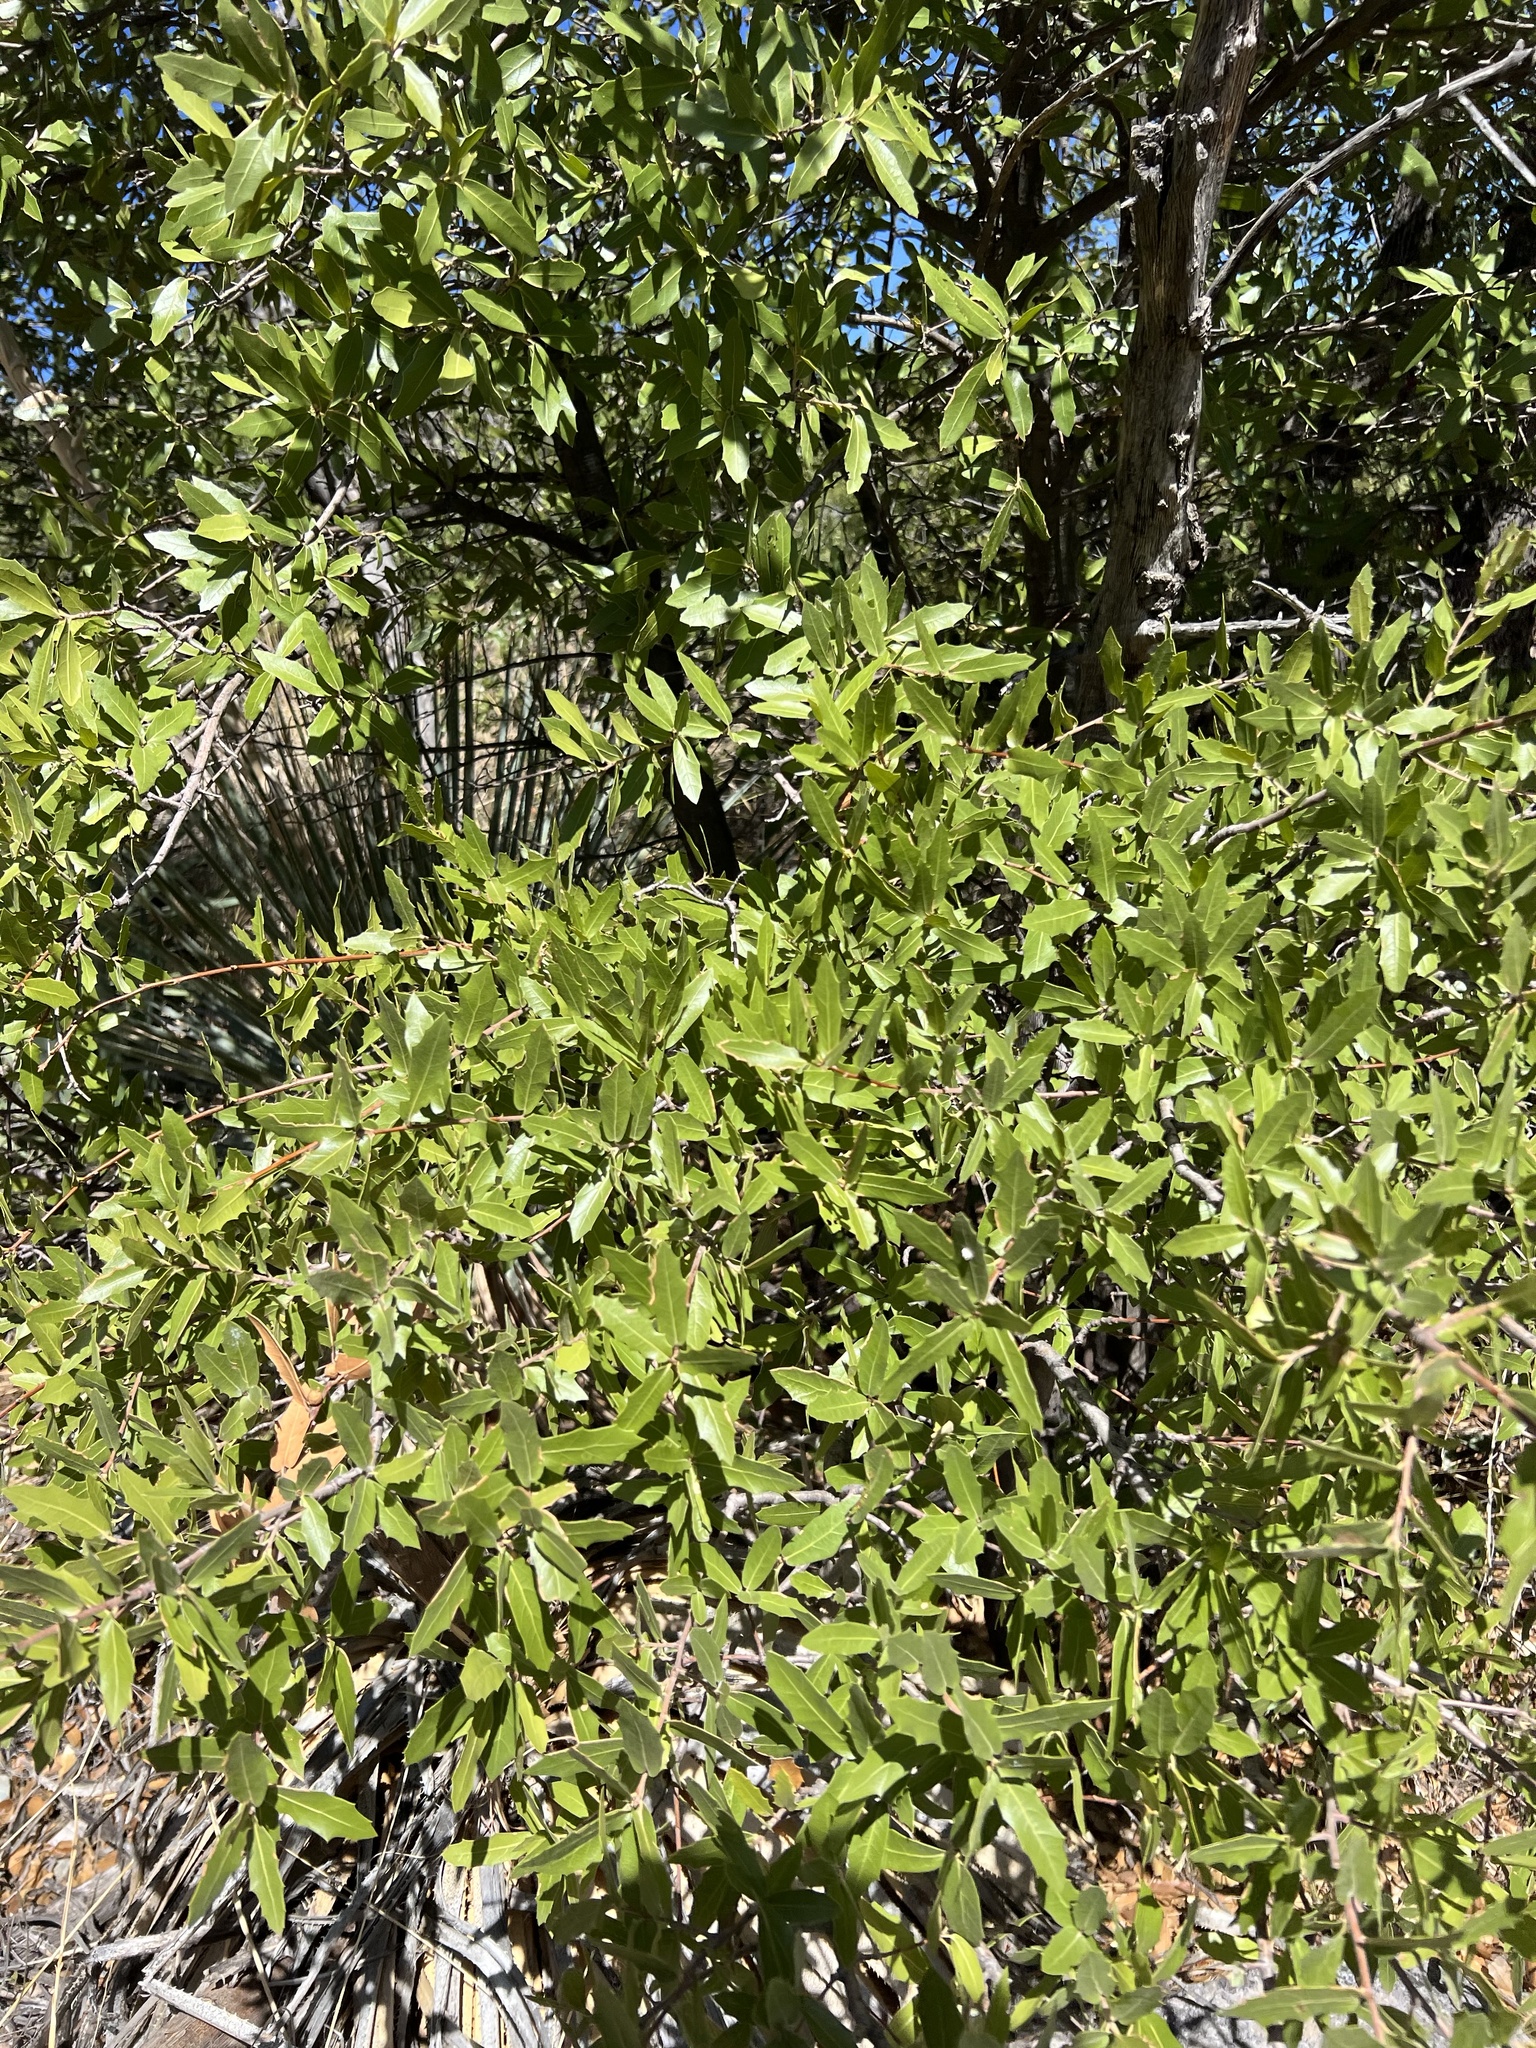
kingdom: Plantae
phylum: Tracheophyta
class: Magnoliopsida
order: Fagales
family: Fagaceae
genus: Quercus
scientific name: Quercus emoryi
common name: Emory oak
